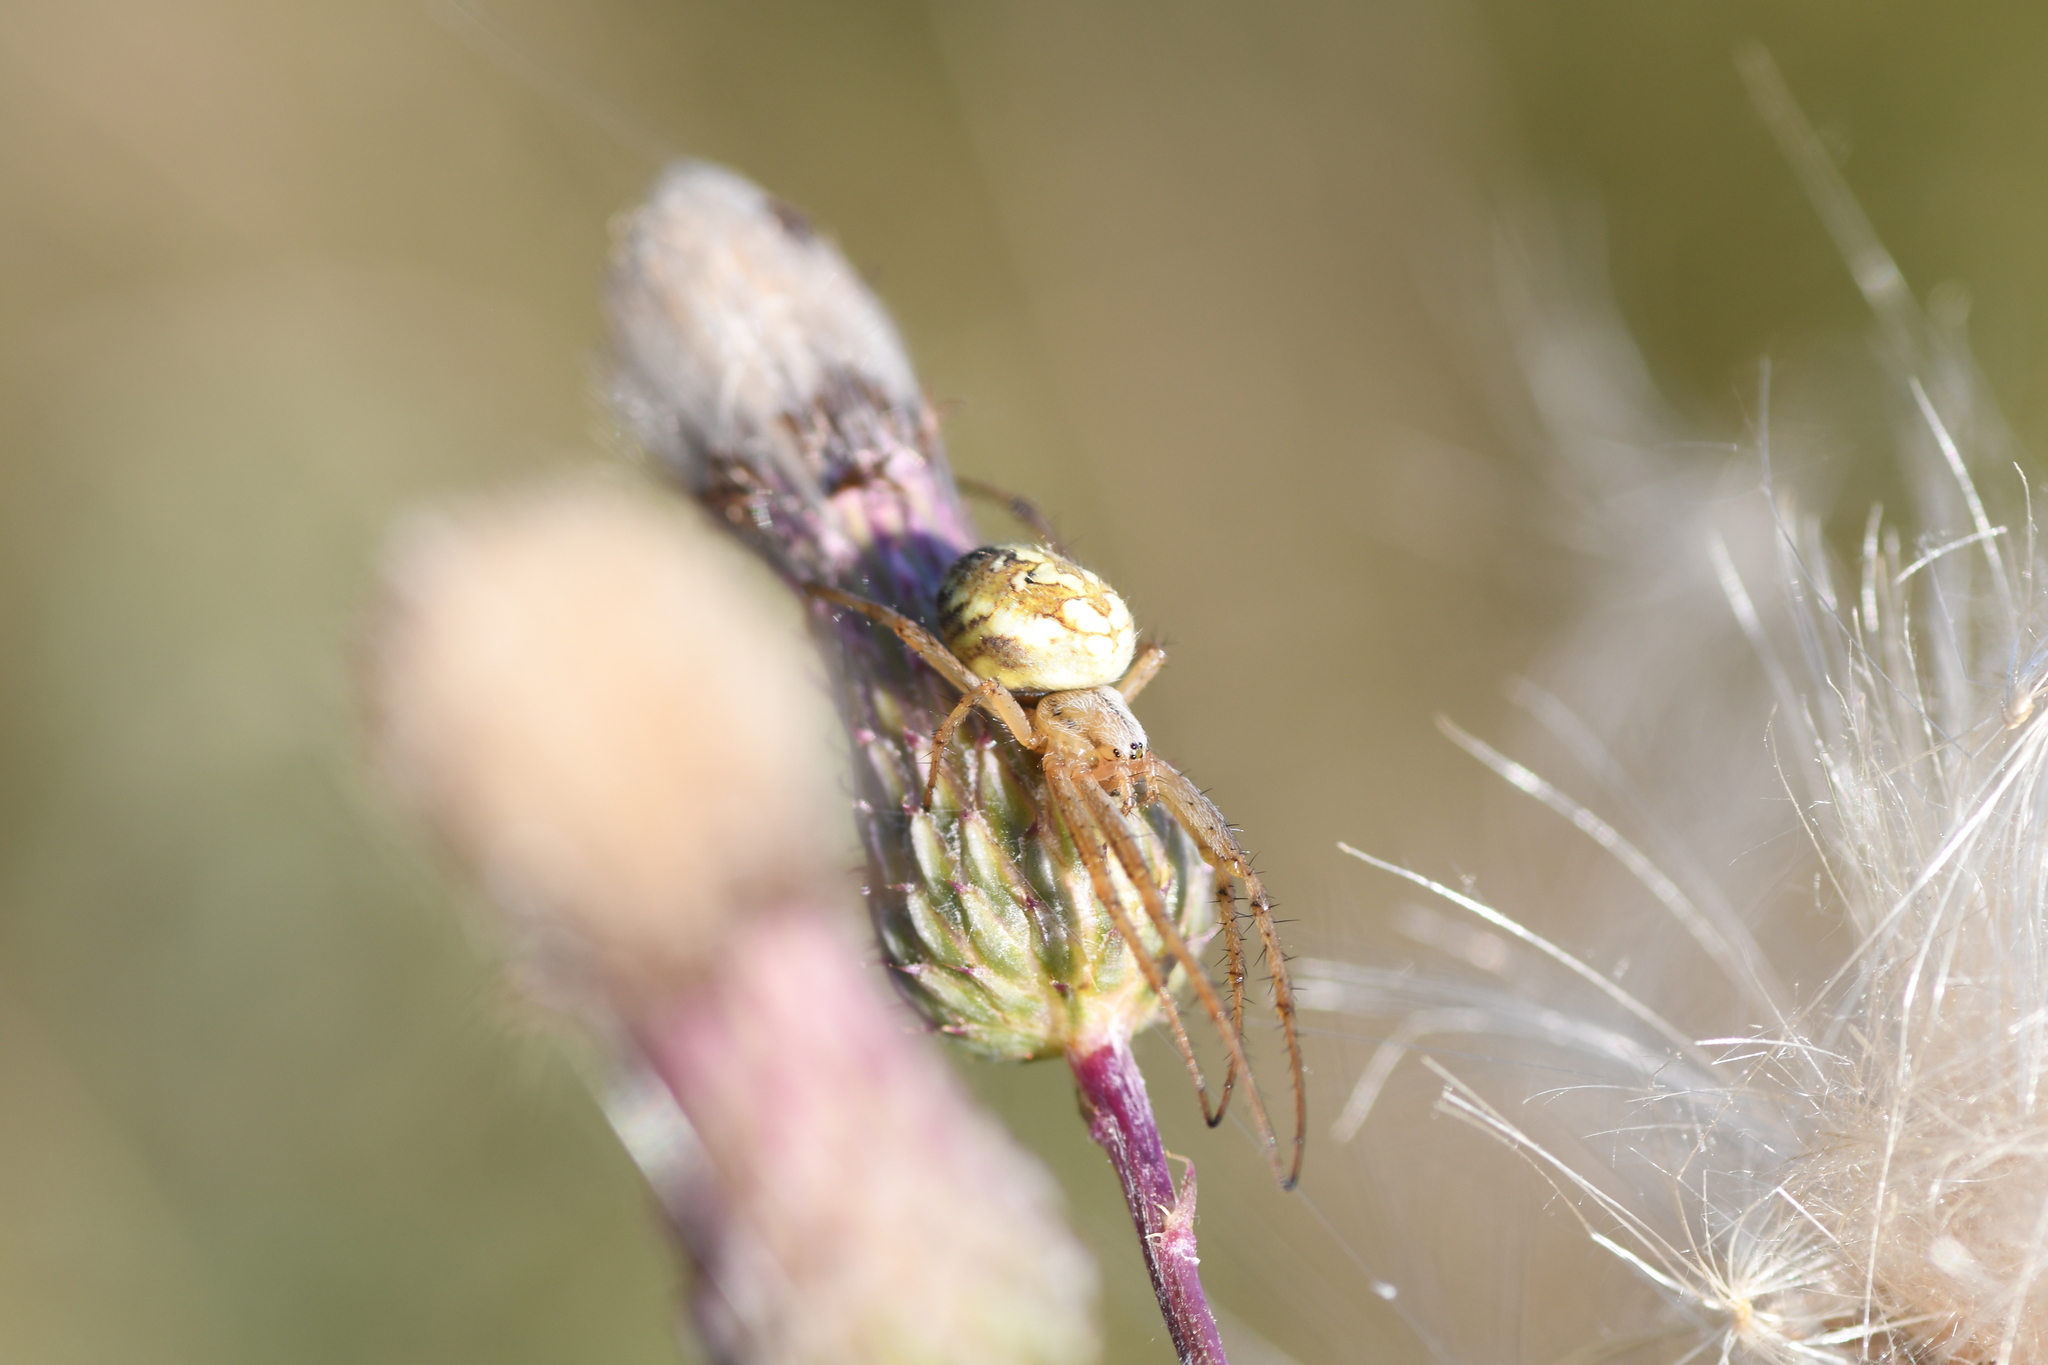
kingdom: Animalia
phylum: Arthropoda
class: Arachnida
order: Araneae
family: Araneidae
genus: Neoscona
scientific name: Neoscona adianta
